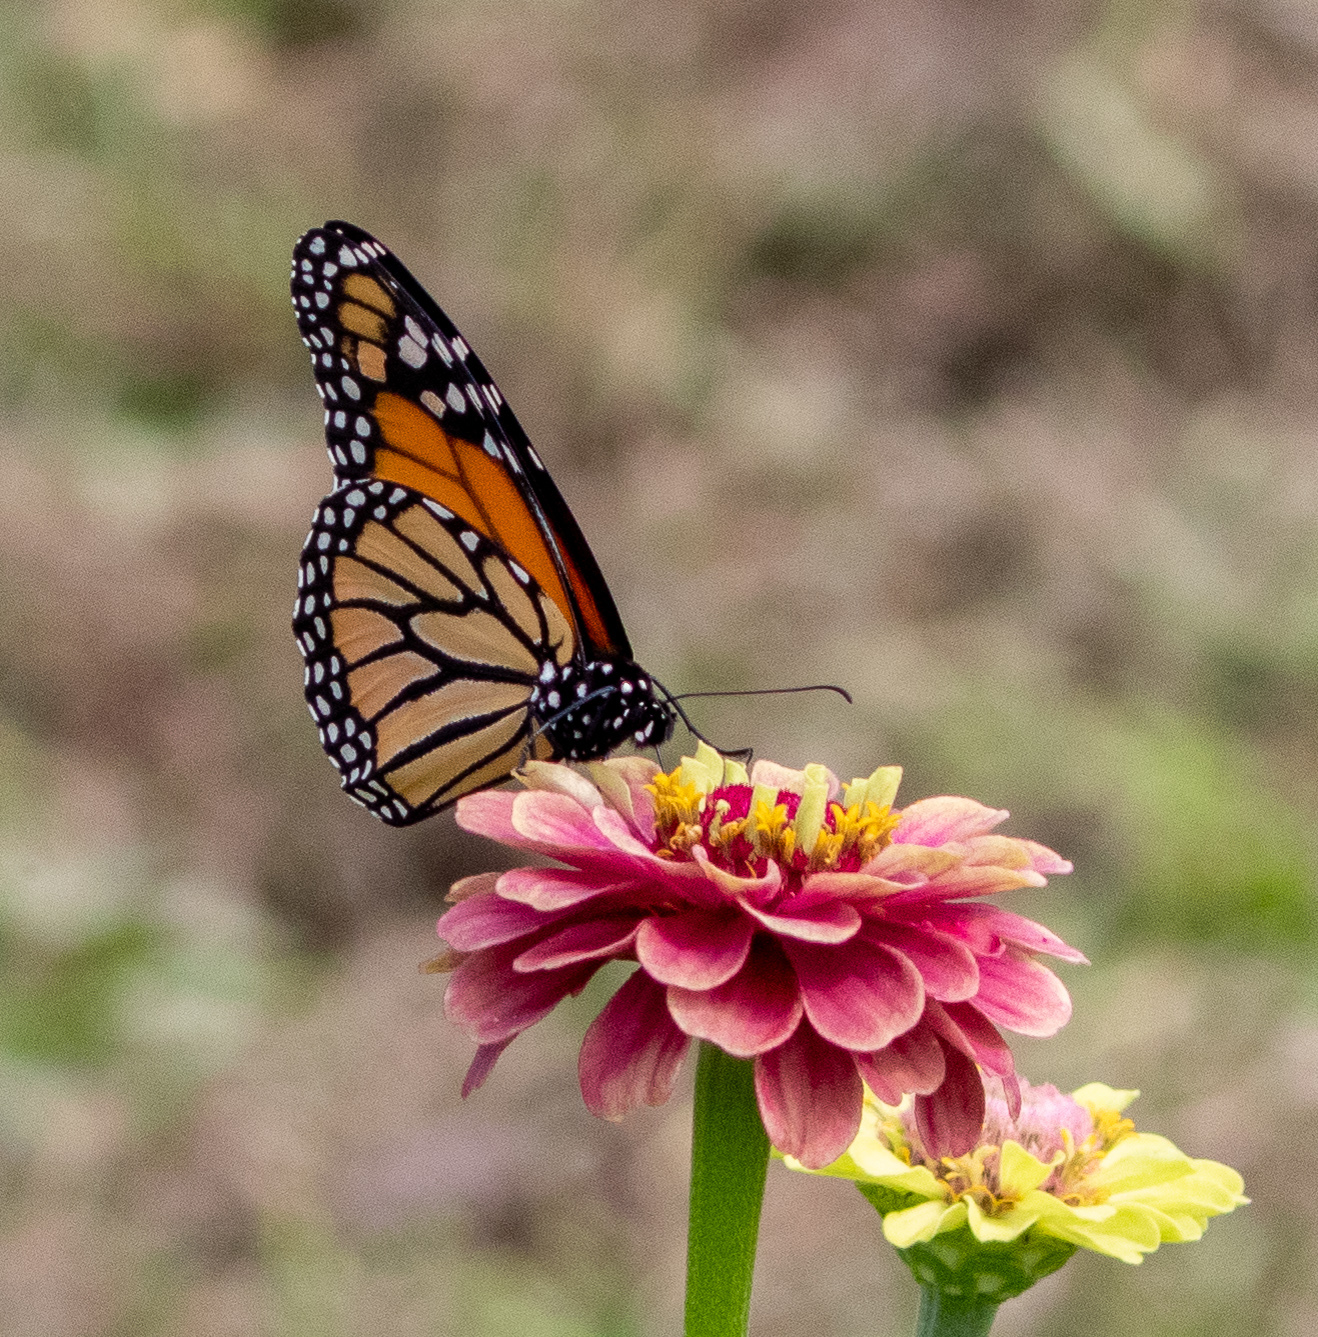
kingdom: Animalia
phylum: Arthropoda
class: Insecta
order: Lepidoptera
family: Nymphalidae
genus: Danaus
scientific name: Danaus plexippus
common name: Monarch
